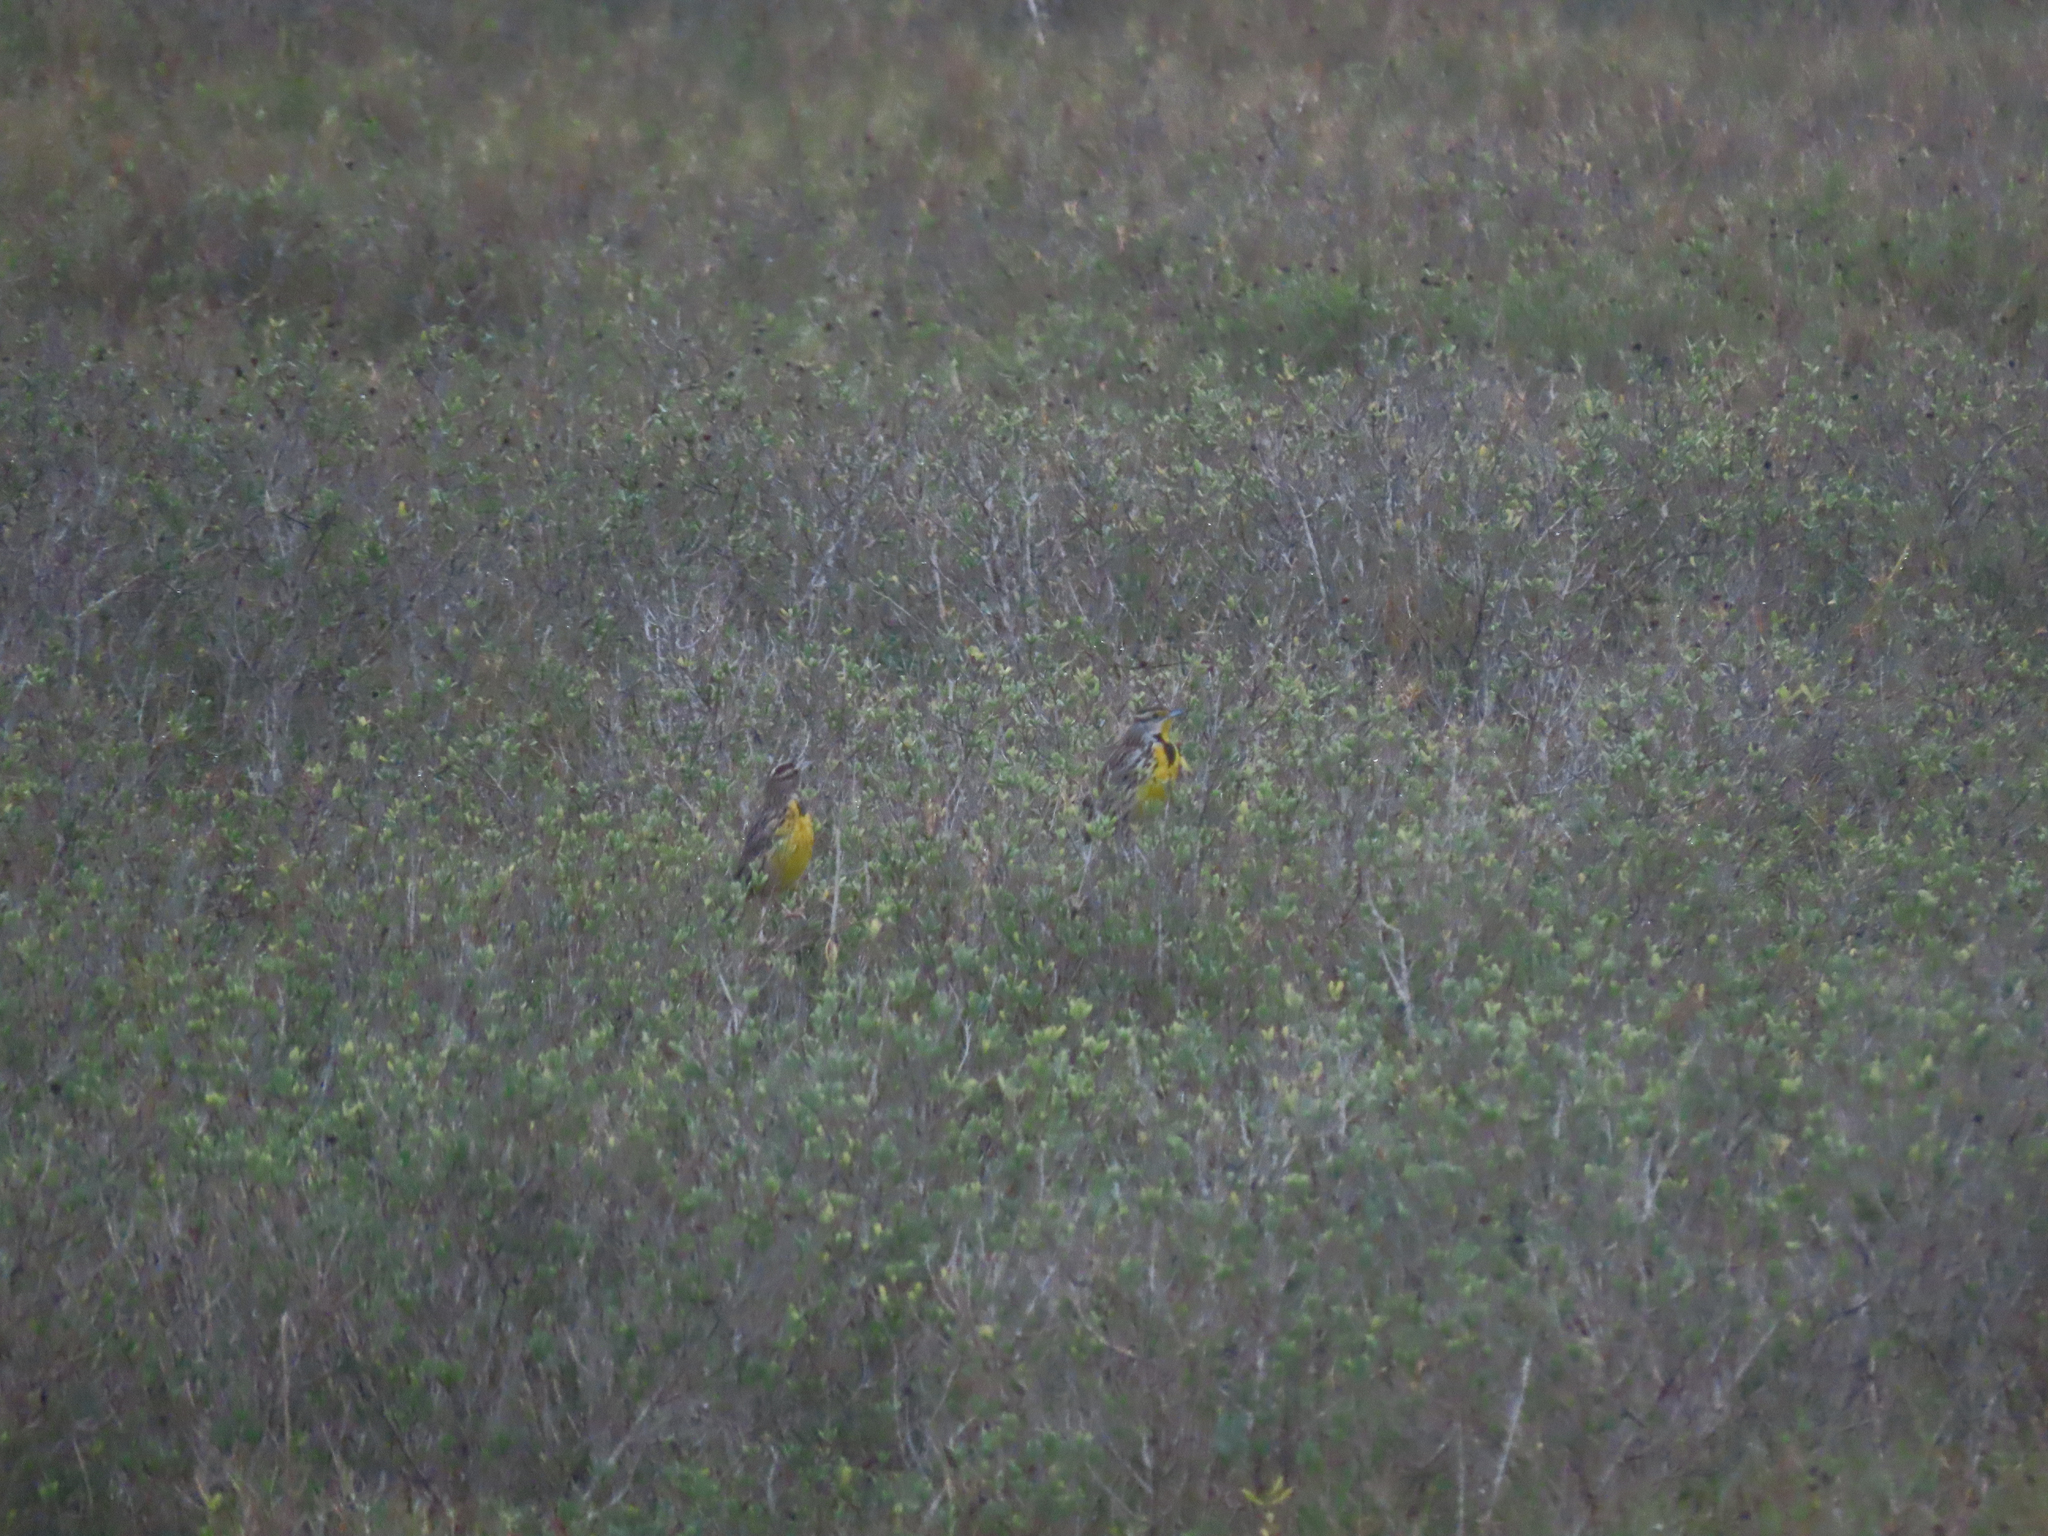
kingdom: Animalia
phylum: Chordata
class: Aves
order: Passeriformes
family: Icteridae
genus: Sturnella
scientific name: Sturnella magna
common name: Eastern meadowlark
